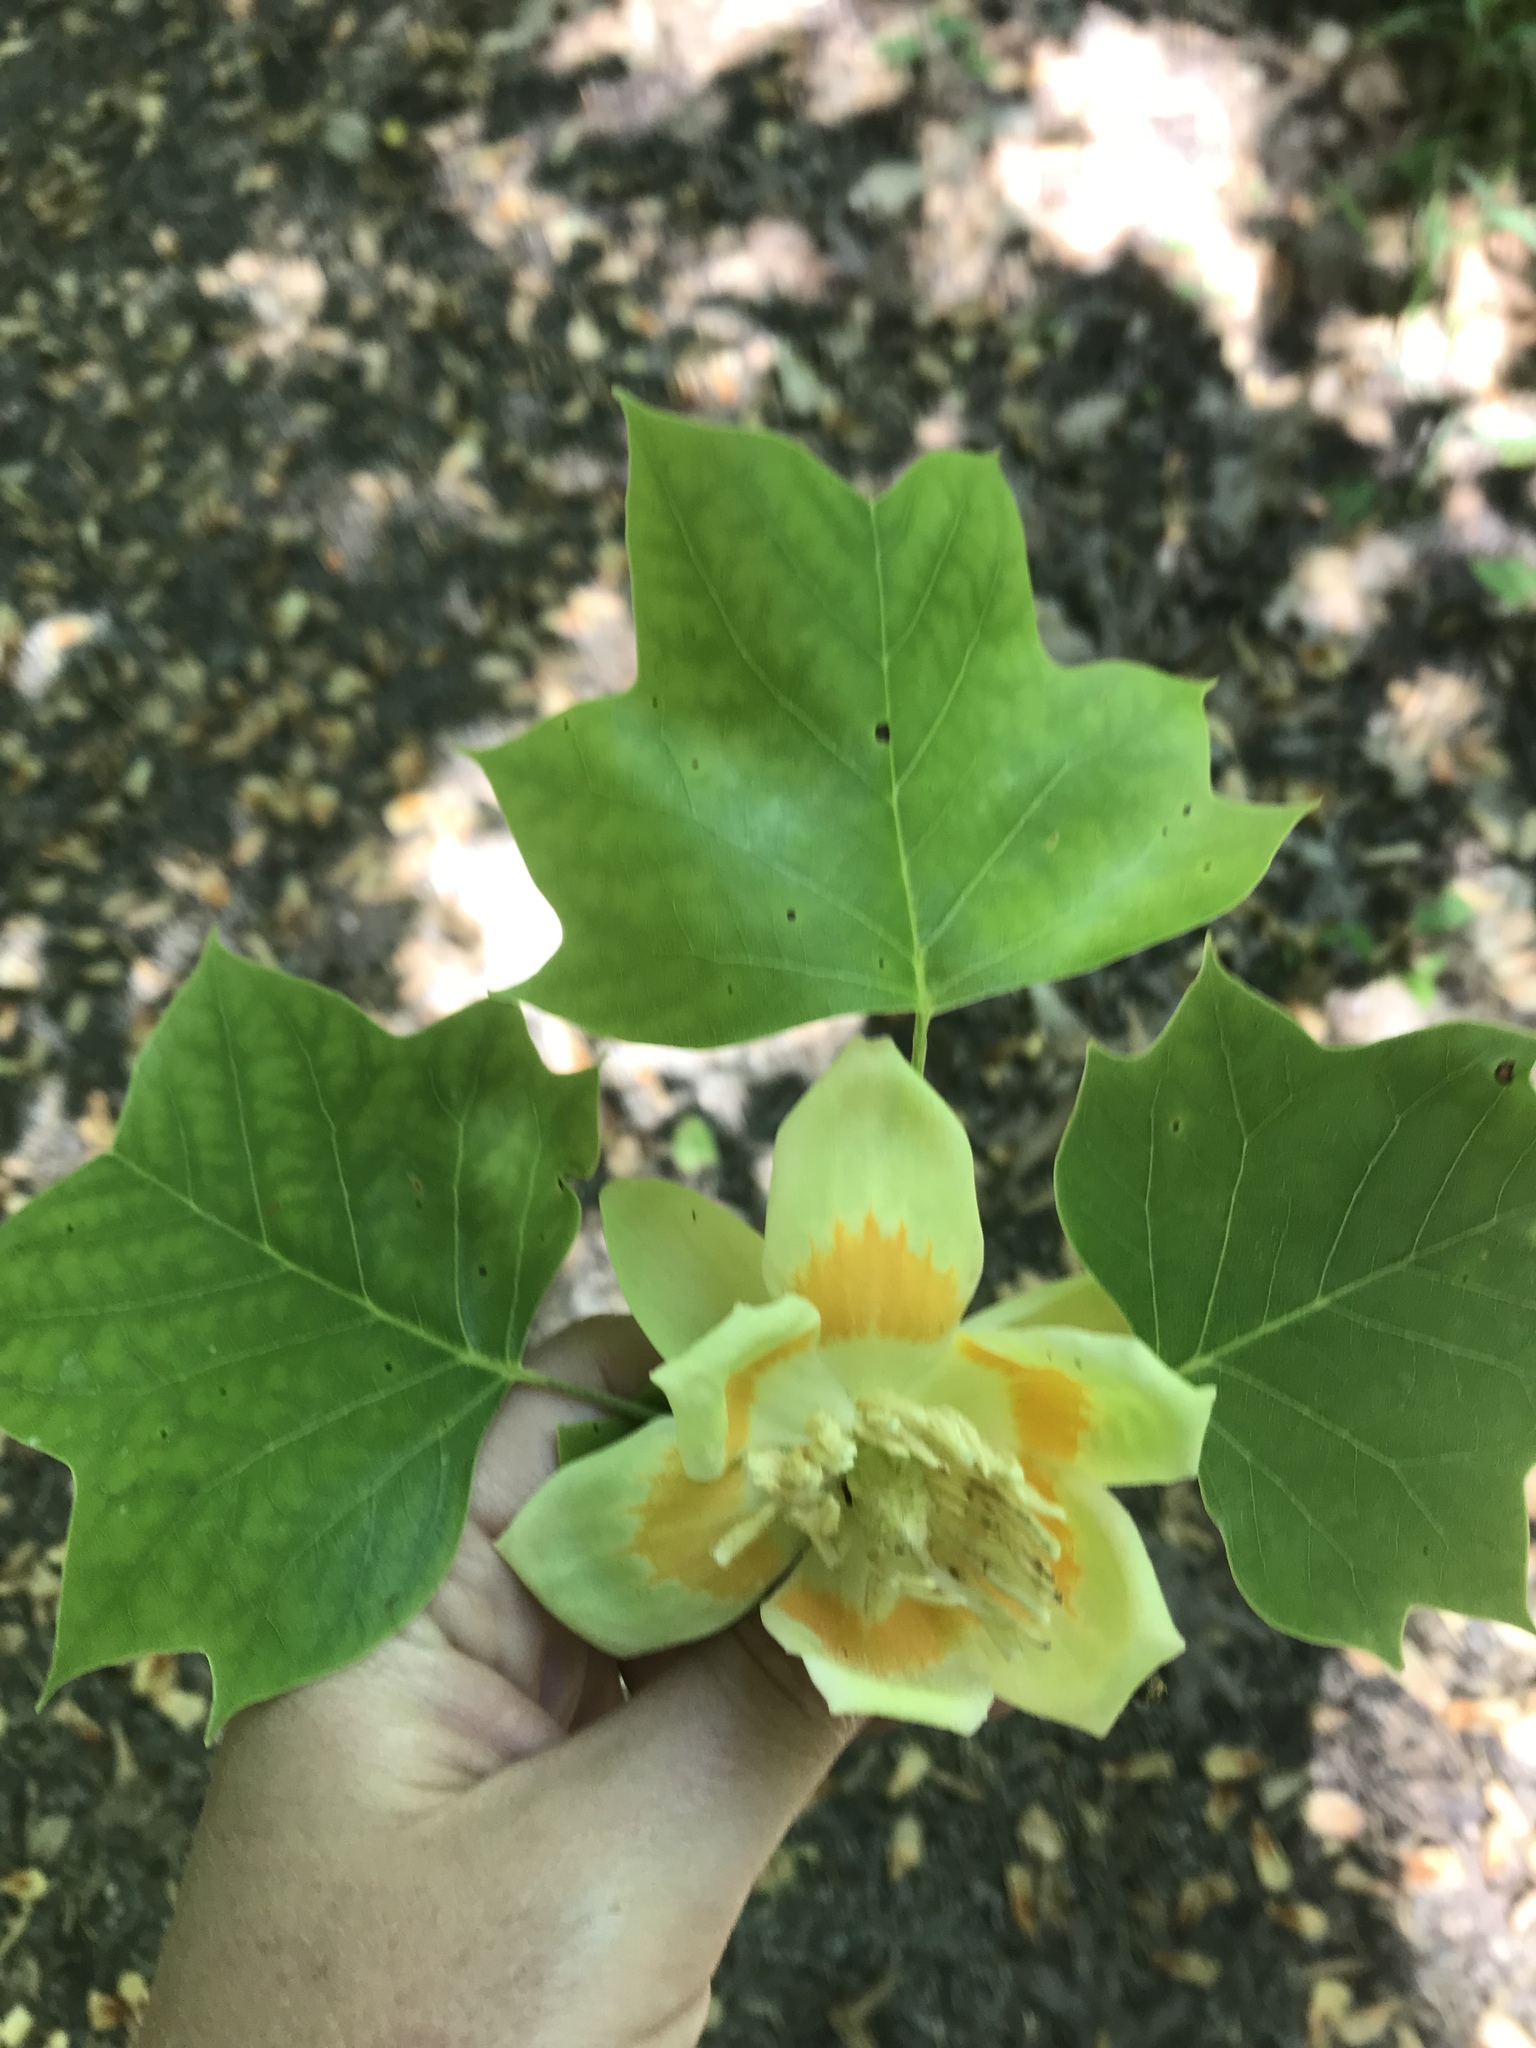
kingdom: Plantae
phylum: Tracheophyta
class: Magnoliopsida
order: Magnoliales
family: Magnoliaceae
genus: Liriodendron
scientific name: Liriodendron tulipifera
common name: Tulip tree
